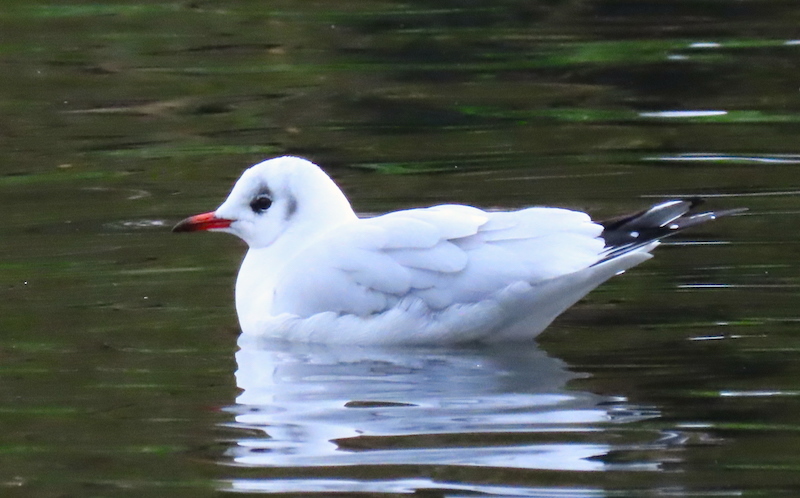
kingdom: Animalia
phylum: Chordata
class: Aves
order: Charadriiformes
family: Laridae
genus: Chroicocephalus
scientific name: Chroicocephalus ridibundus
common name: Black-headed gull
